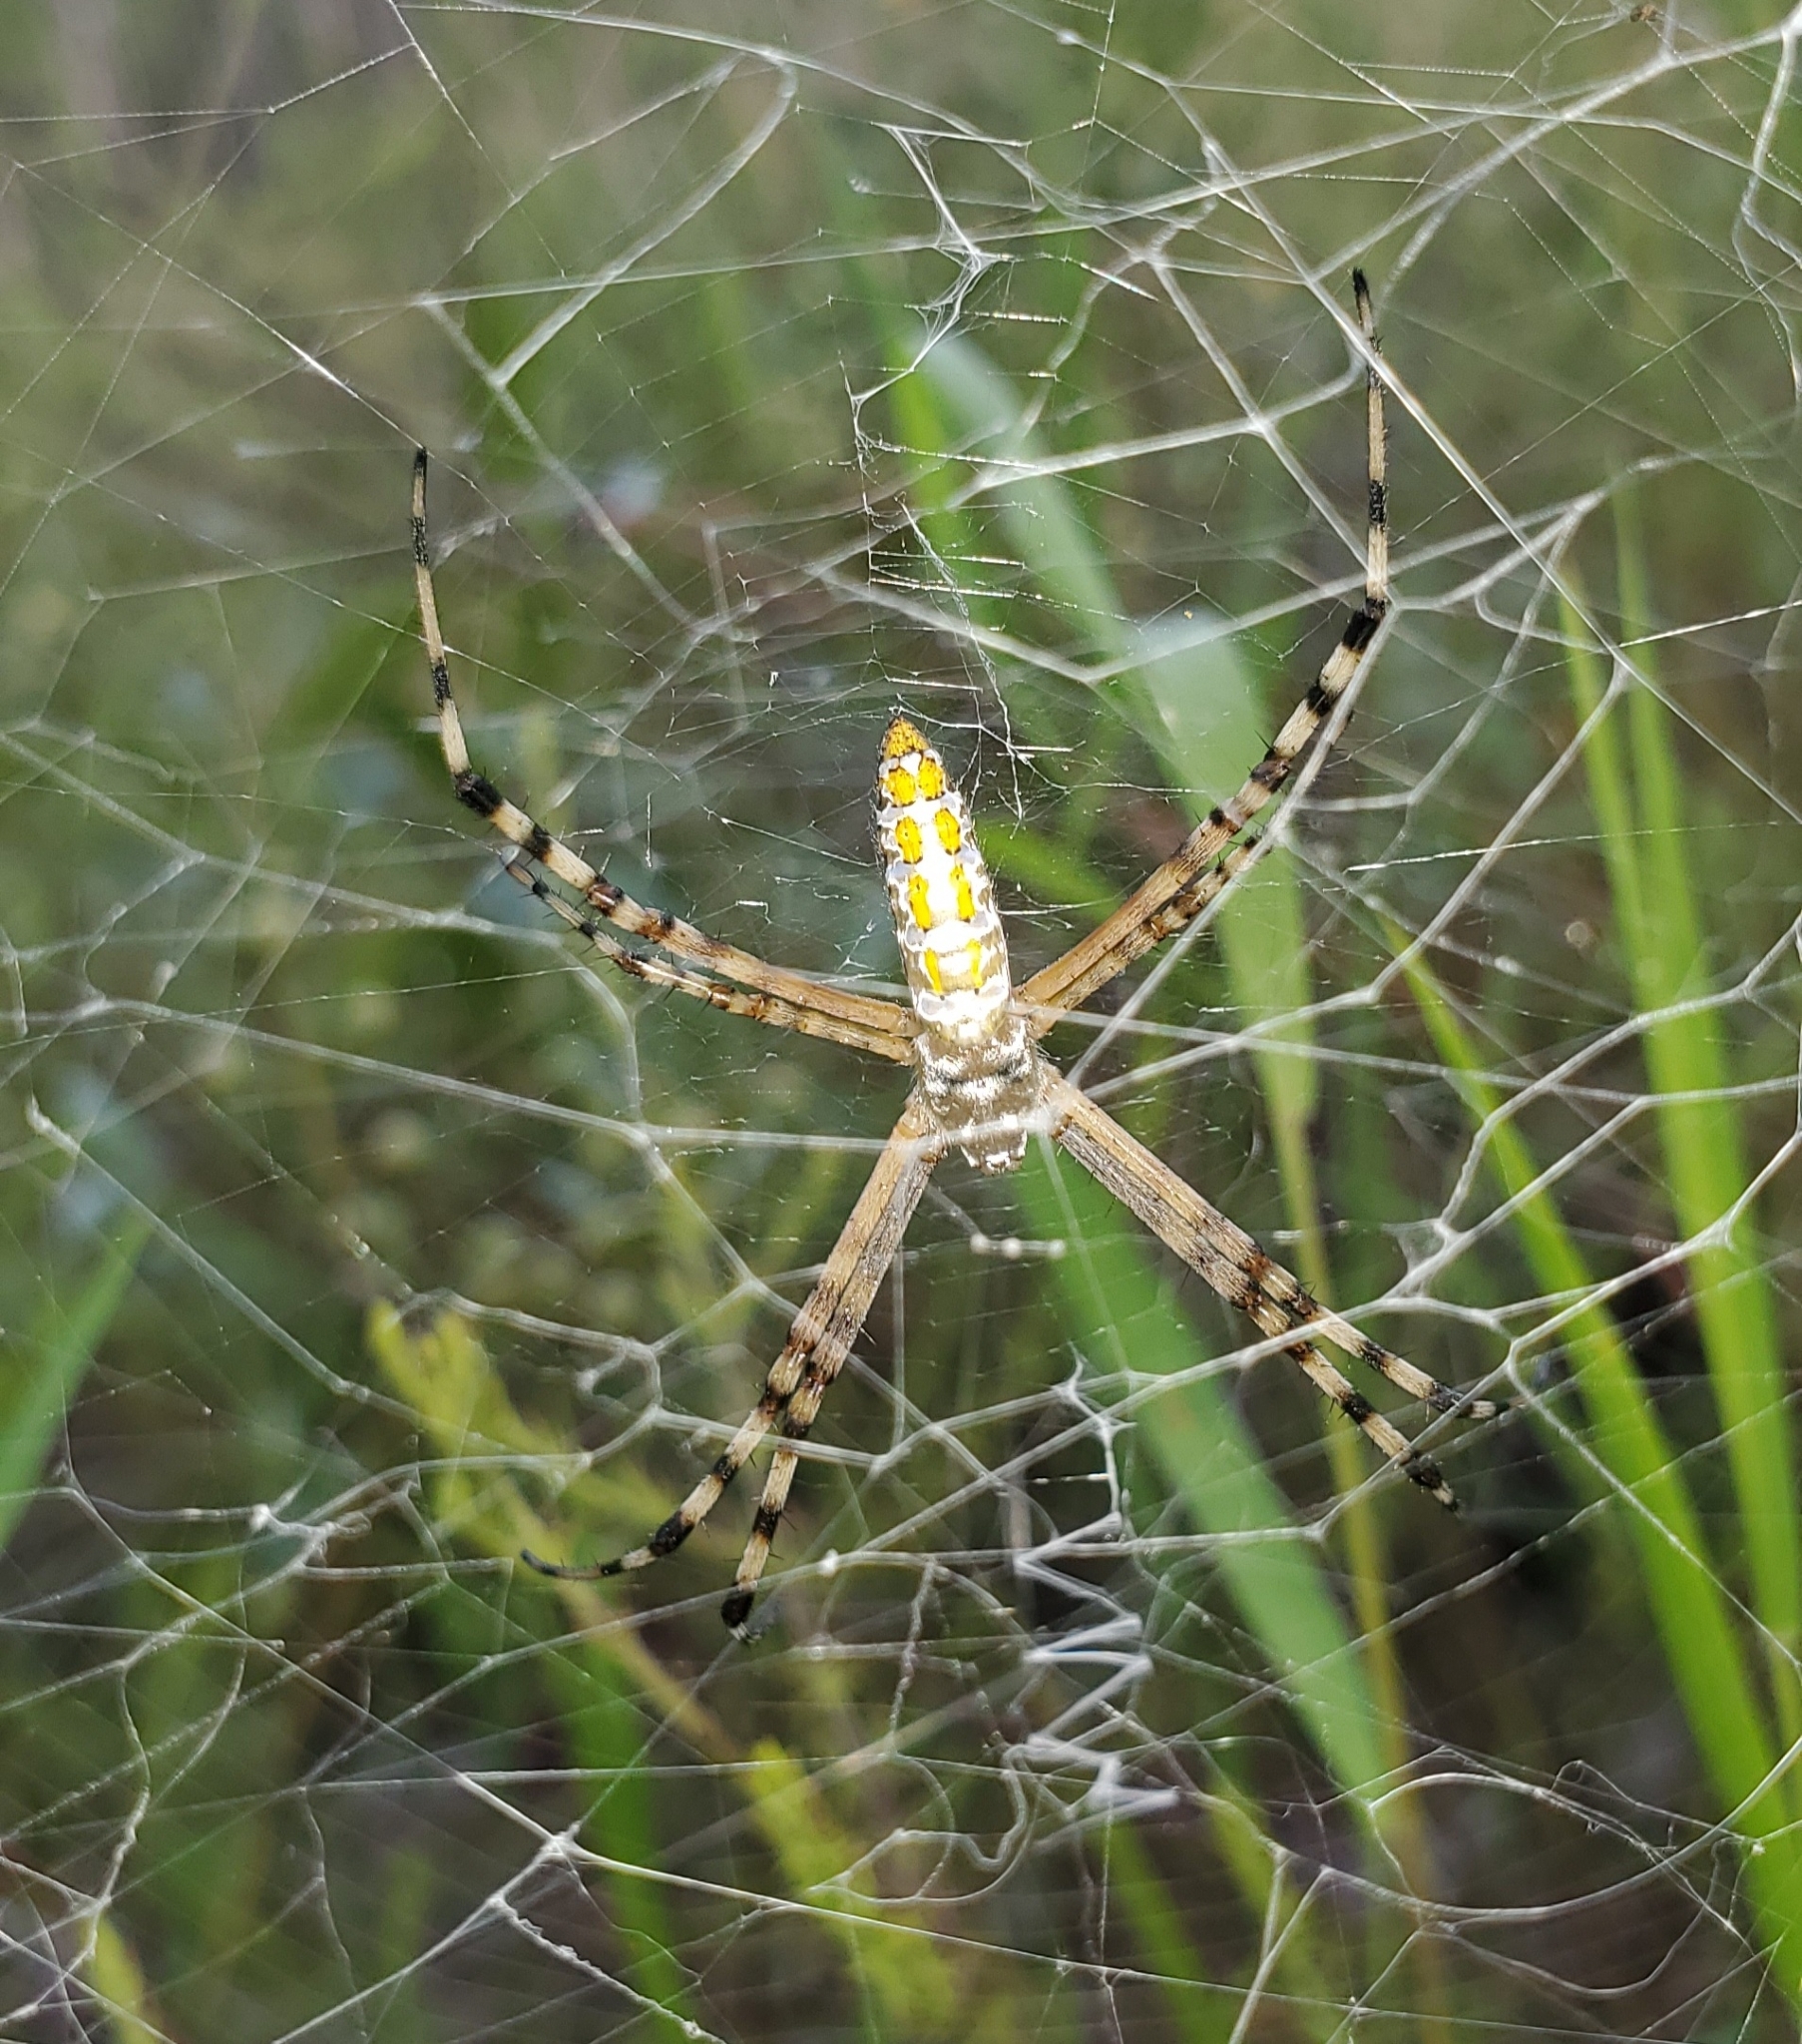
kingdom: Animalia
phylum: Arthropoda
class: Arachnida
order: Araneae
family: Araneidae
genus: Argiope
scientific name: Argiope trifasciata
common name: Banded garden spider
